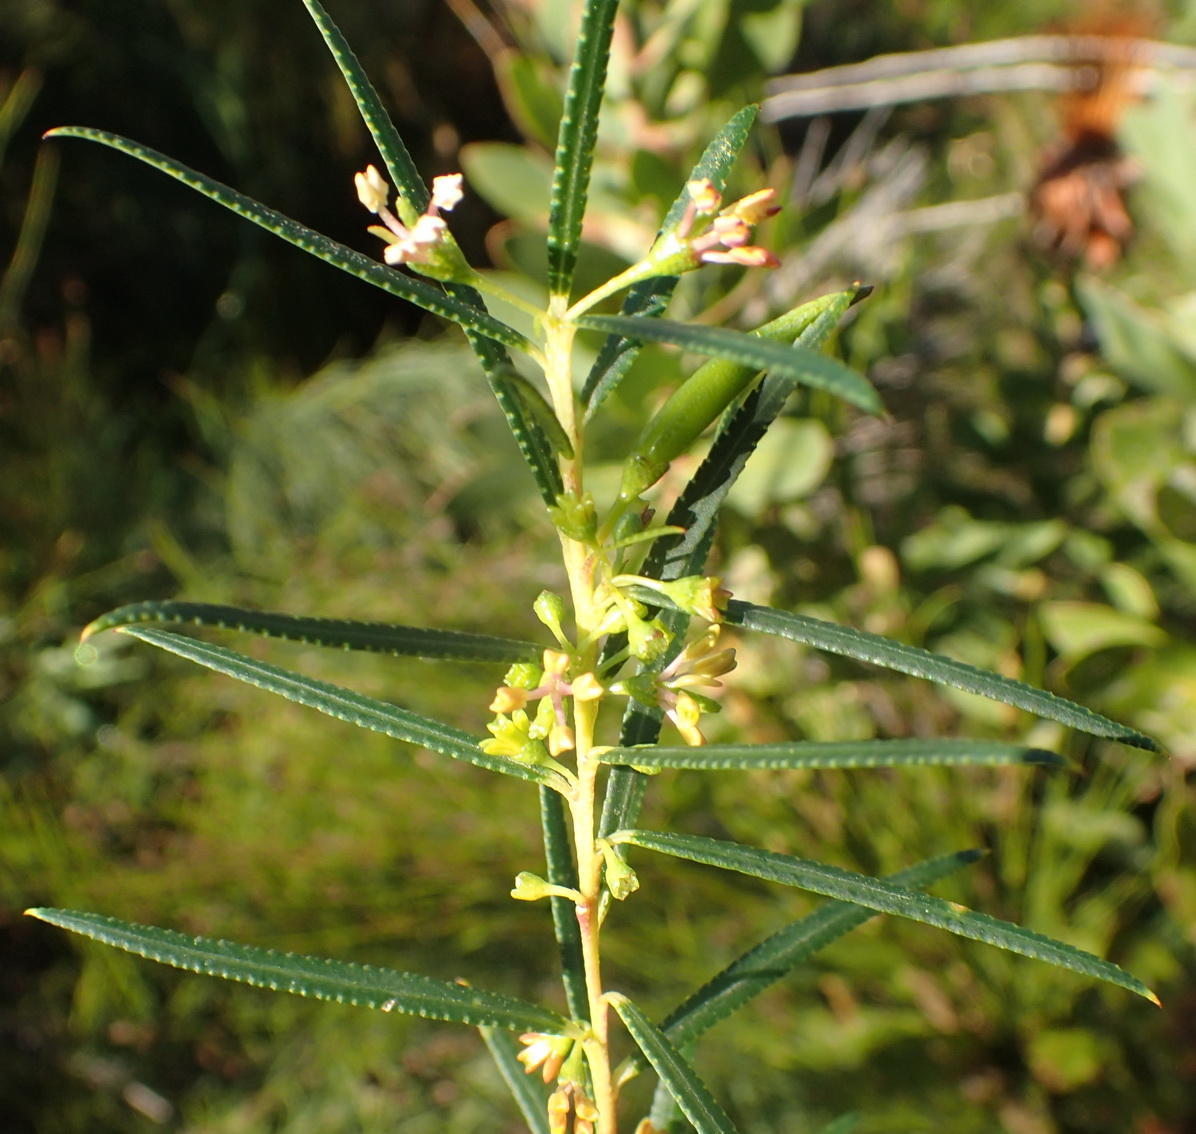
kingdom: Plantae
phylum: Tracheophyta
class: Magnoliopsida
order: Sapindales
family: Rutaceae
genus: Empleurum
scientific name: Empleurum unicapsulare
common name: False buchu
